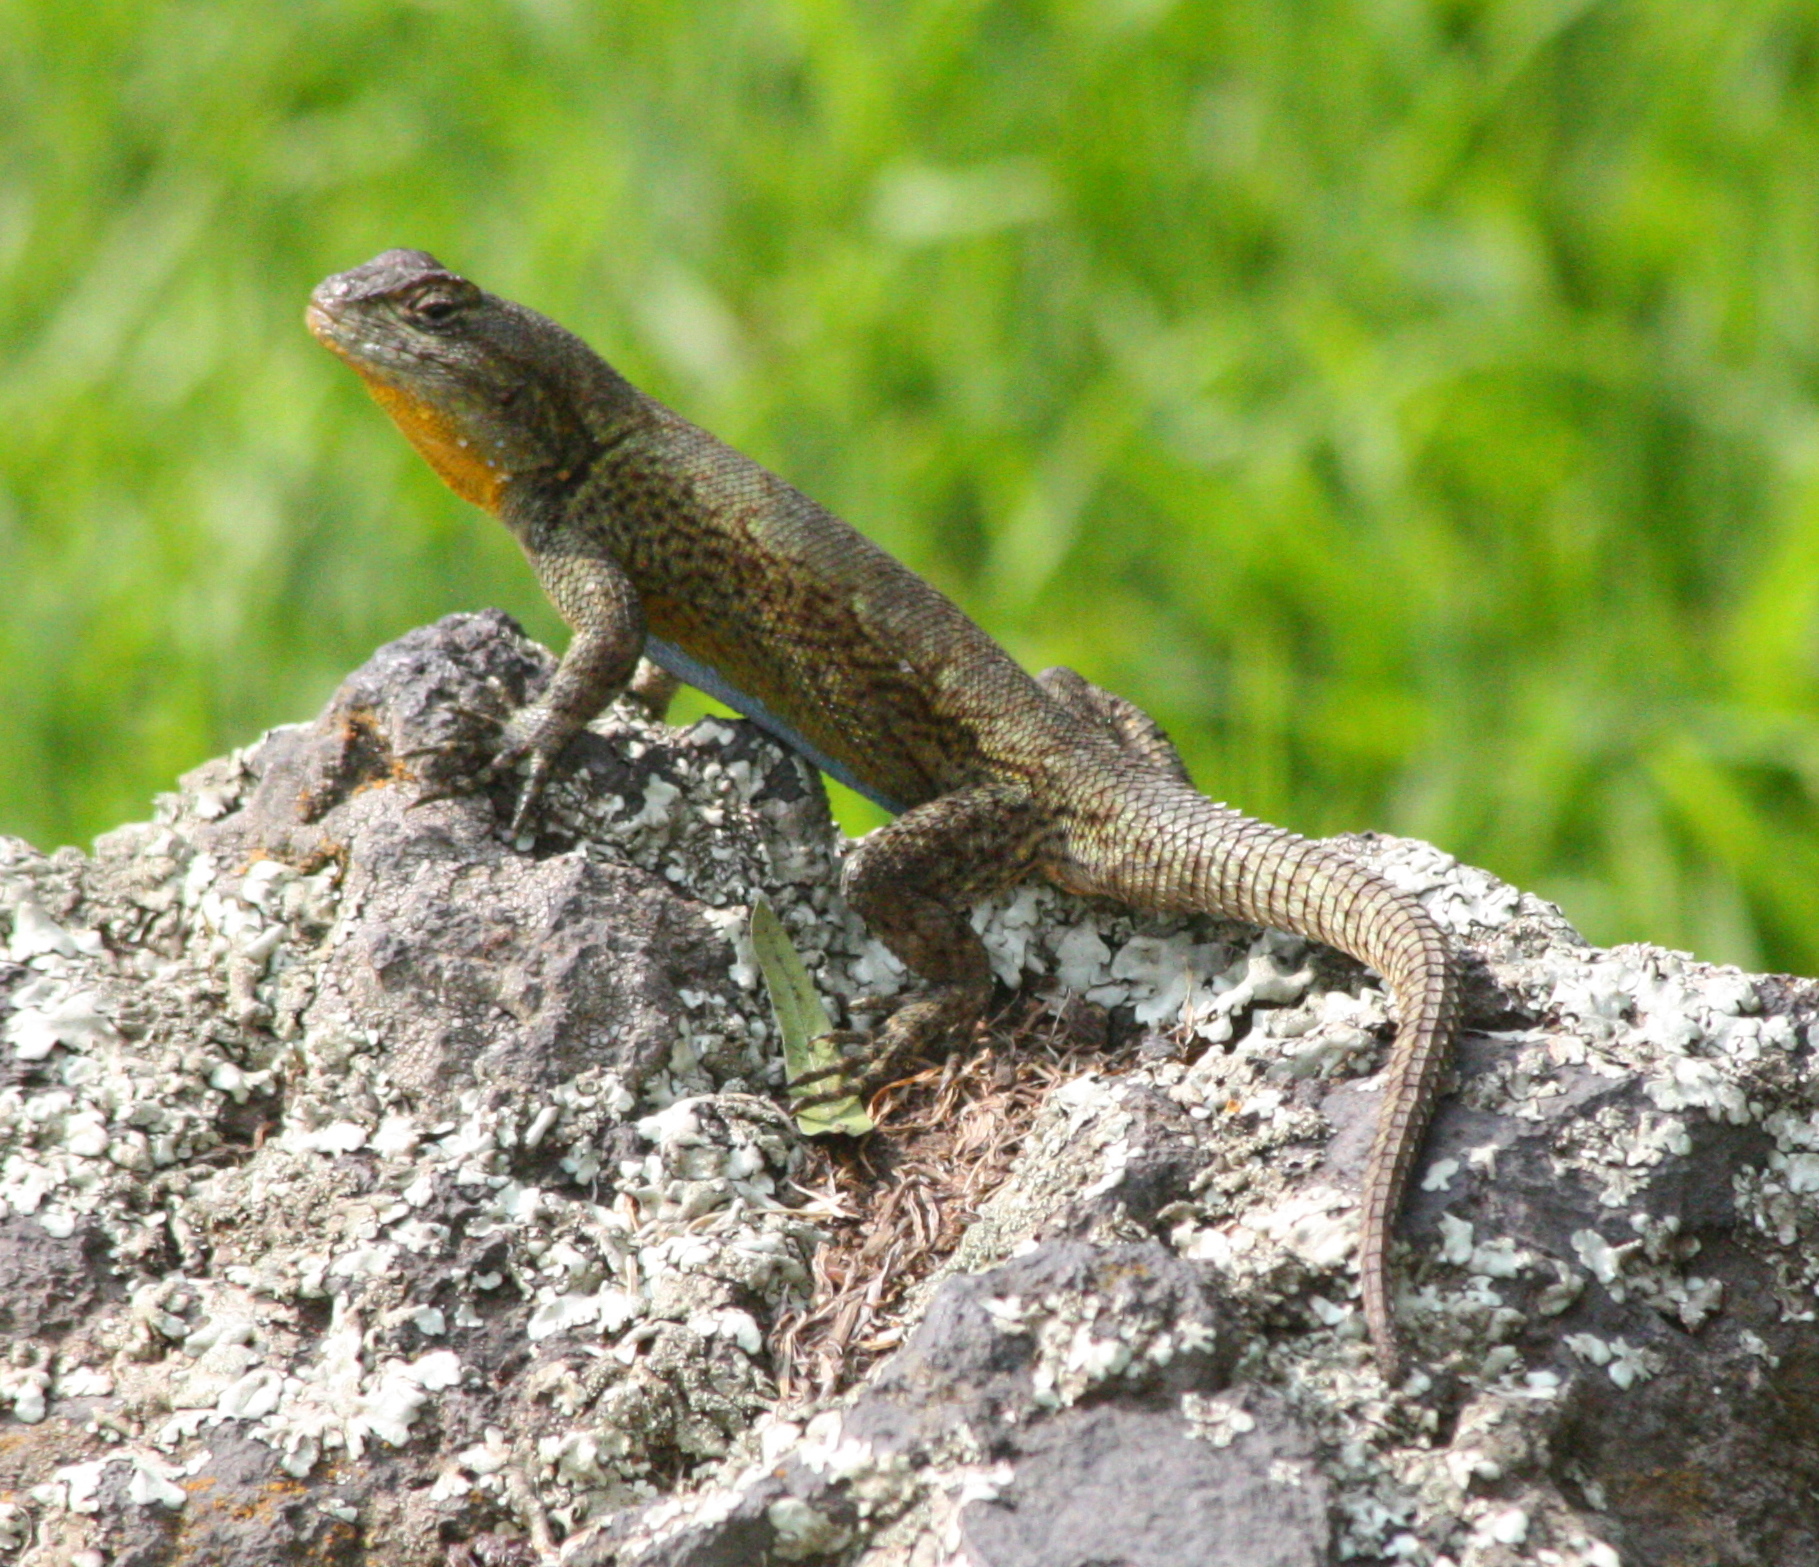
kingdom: Animalia
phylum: Chordata
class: Squamata
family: Phrynosomatidae
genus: Sceloporus
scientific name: Sceloporus grammicus
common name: Mesquite lizard
